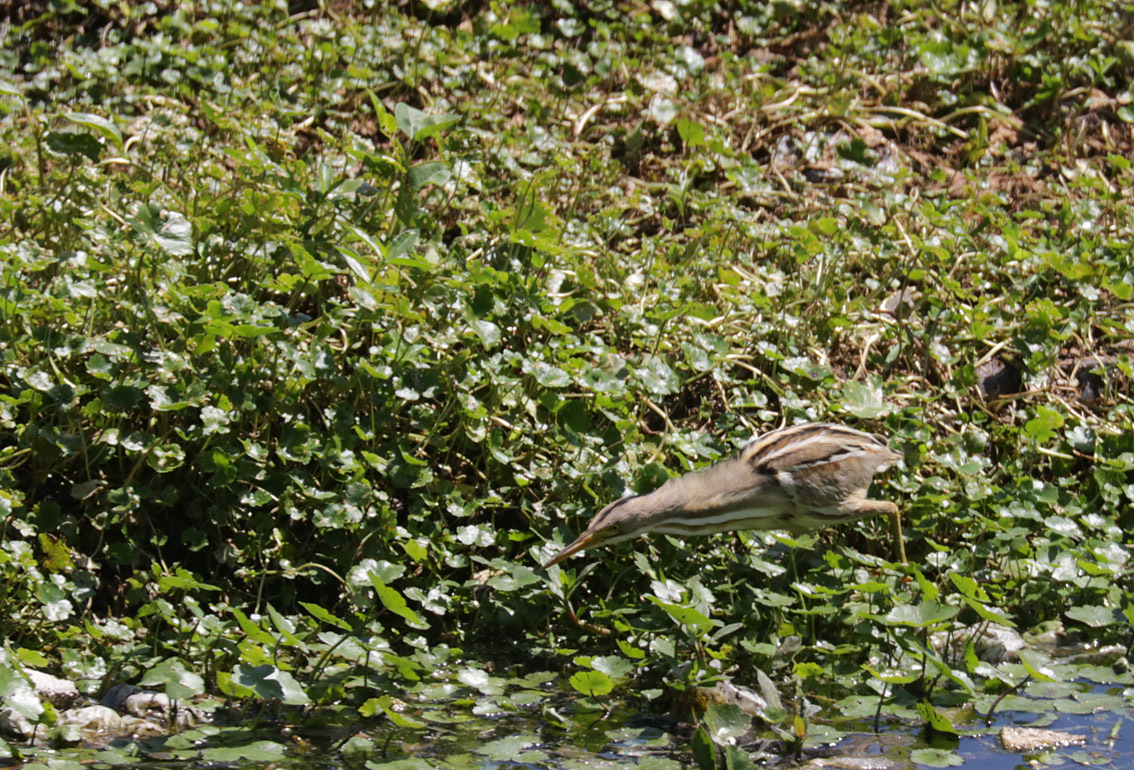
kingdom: Animalia
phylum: Chordata
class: Aves
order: Pelecaniformes
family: Ardeidae
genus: Ixobrychus
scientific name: Ixobrychus involucris
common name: Stripe-backed bittern
